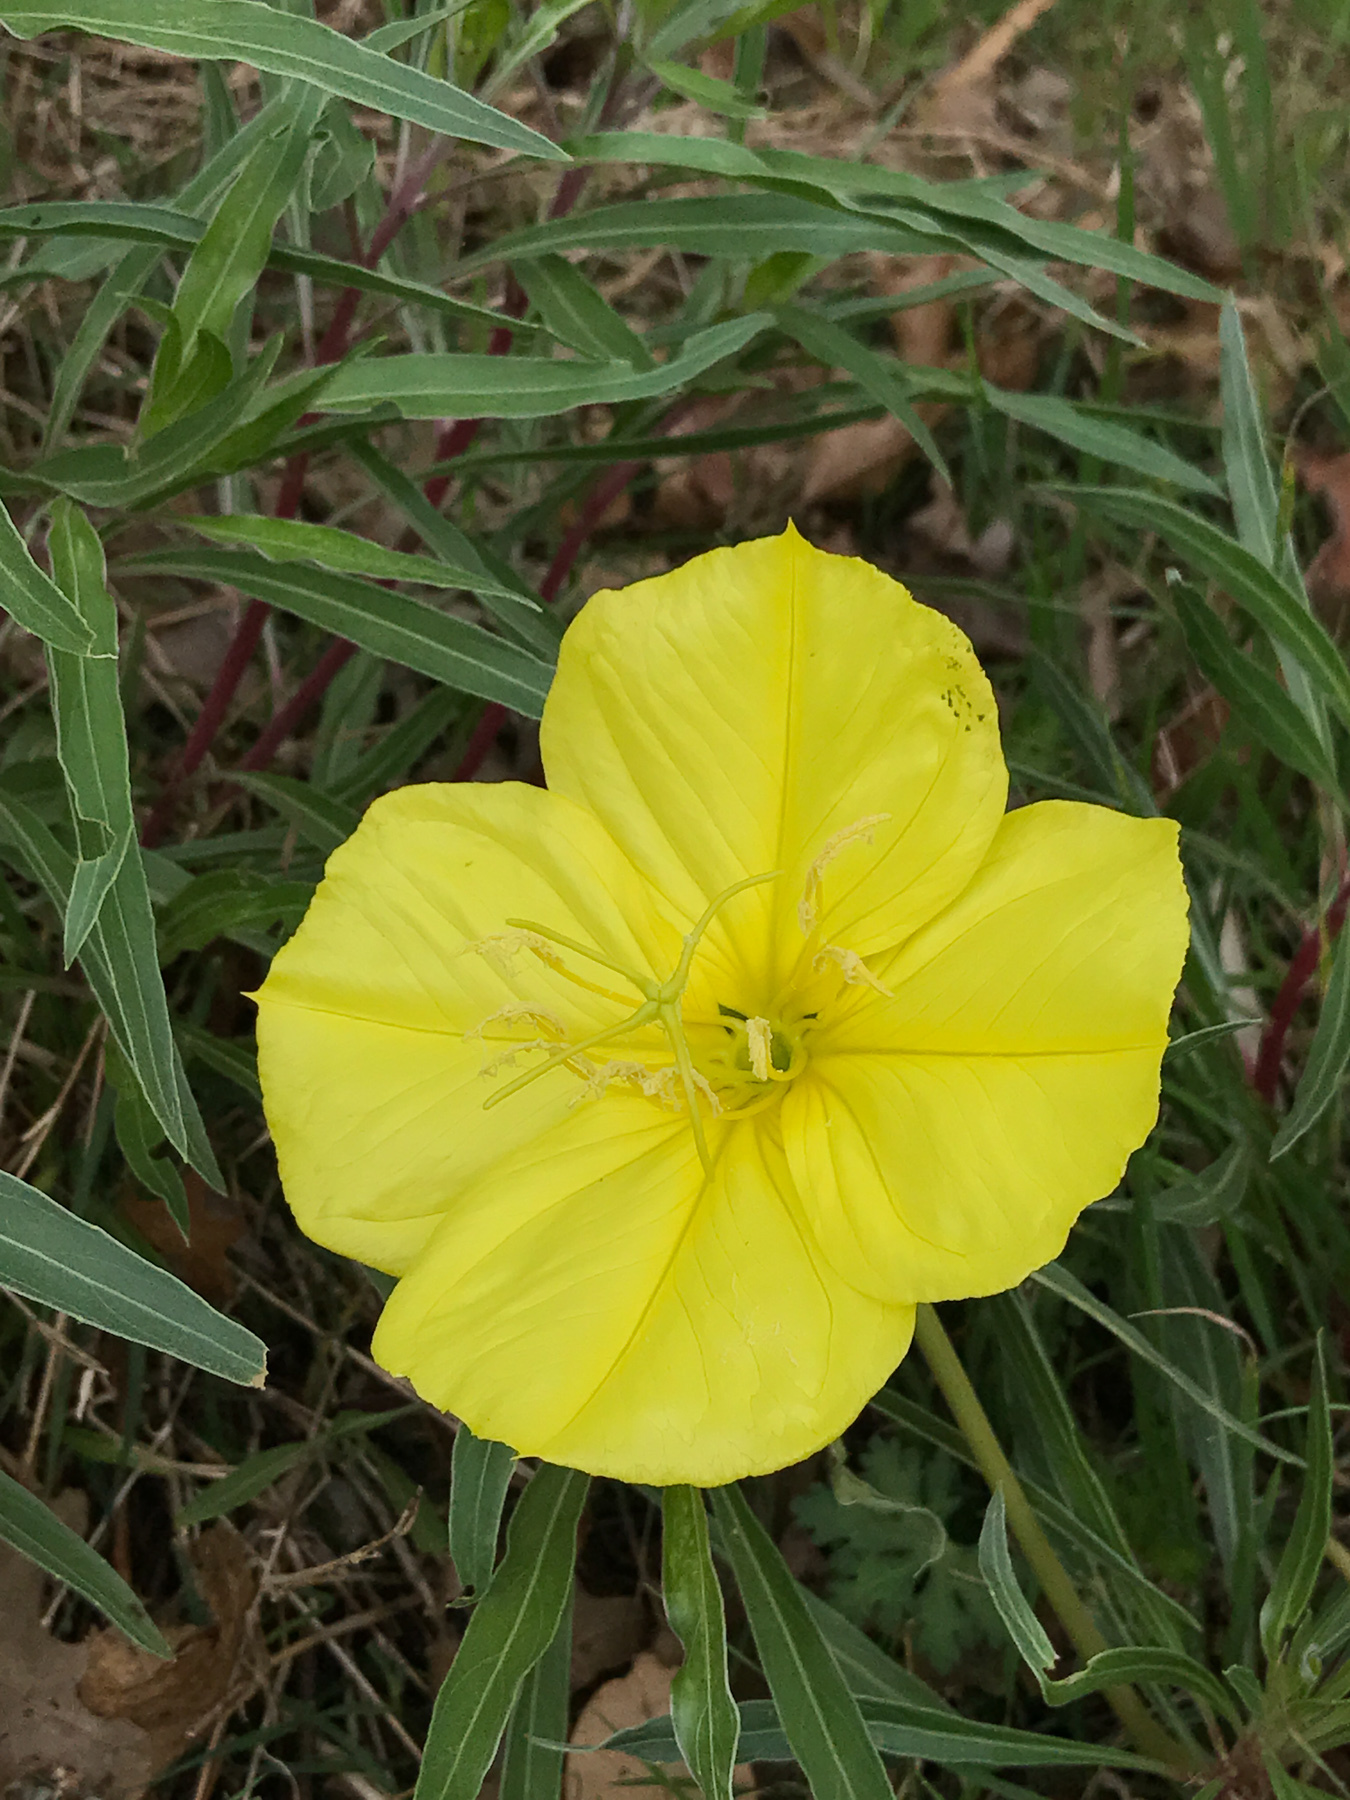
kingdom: Plantae
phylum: Tracheophyta
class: Magnoliopsida
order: Myrtales
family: Onagraceae
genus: Oenothera
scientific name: Oenothera macrocarpa
